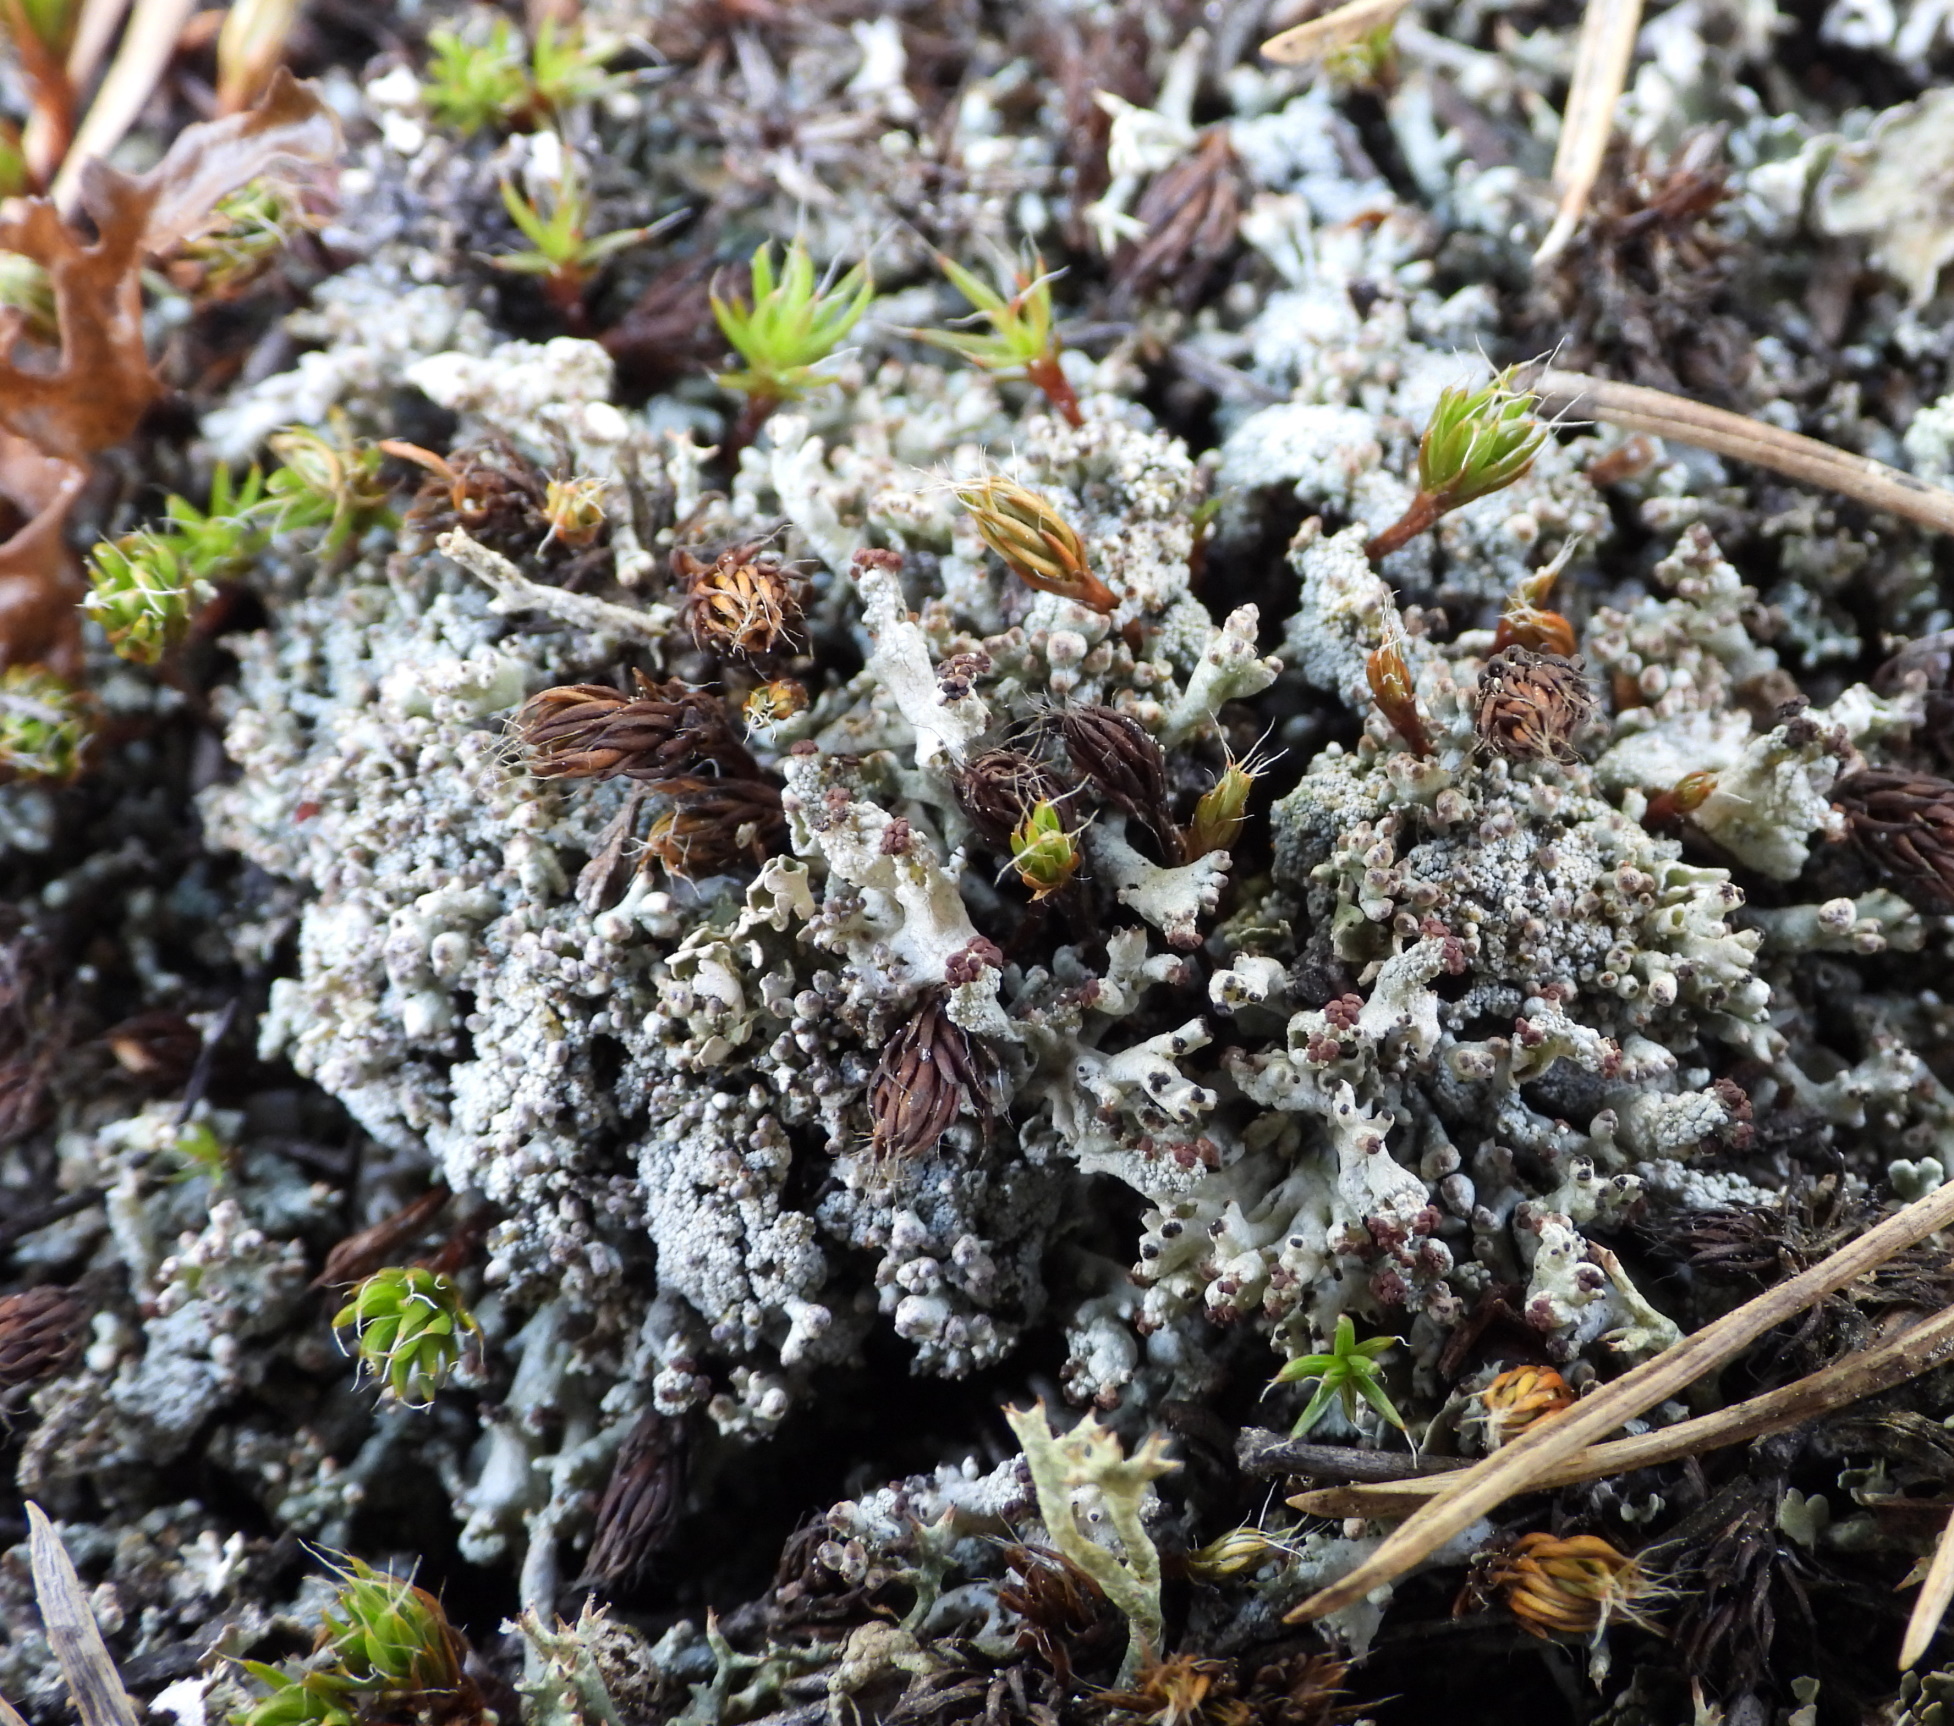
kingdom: Fungi
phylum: Ascomycota
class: Lecanoromycetes
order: Lecanorales
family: Cladoniaceae
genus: Pycnothelia
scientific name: Pycnothelia papillaria
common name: Nipple lichen
